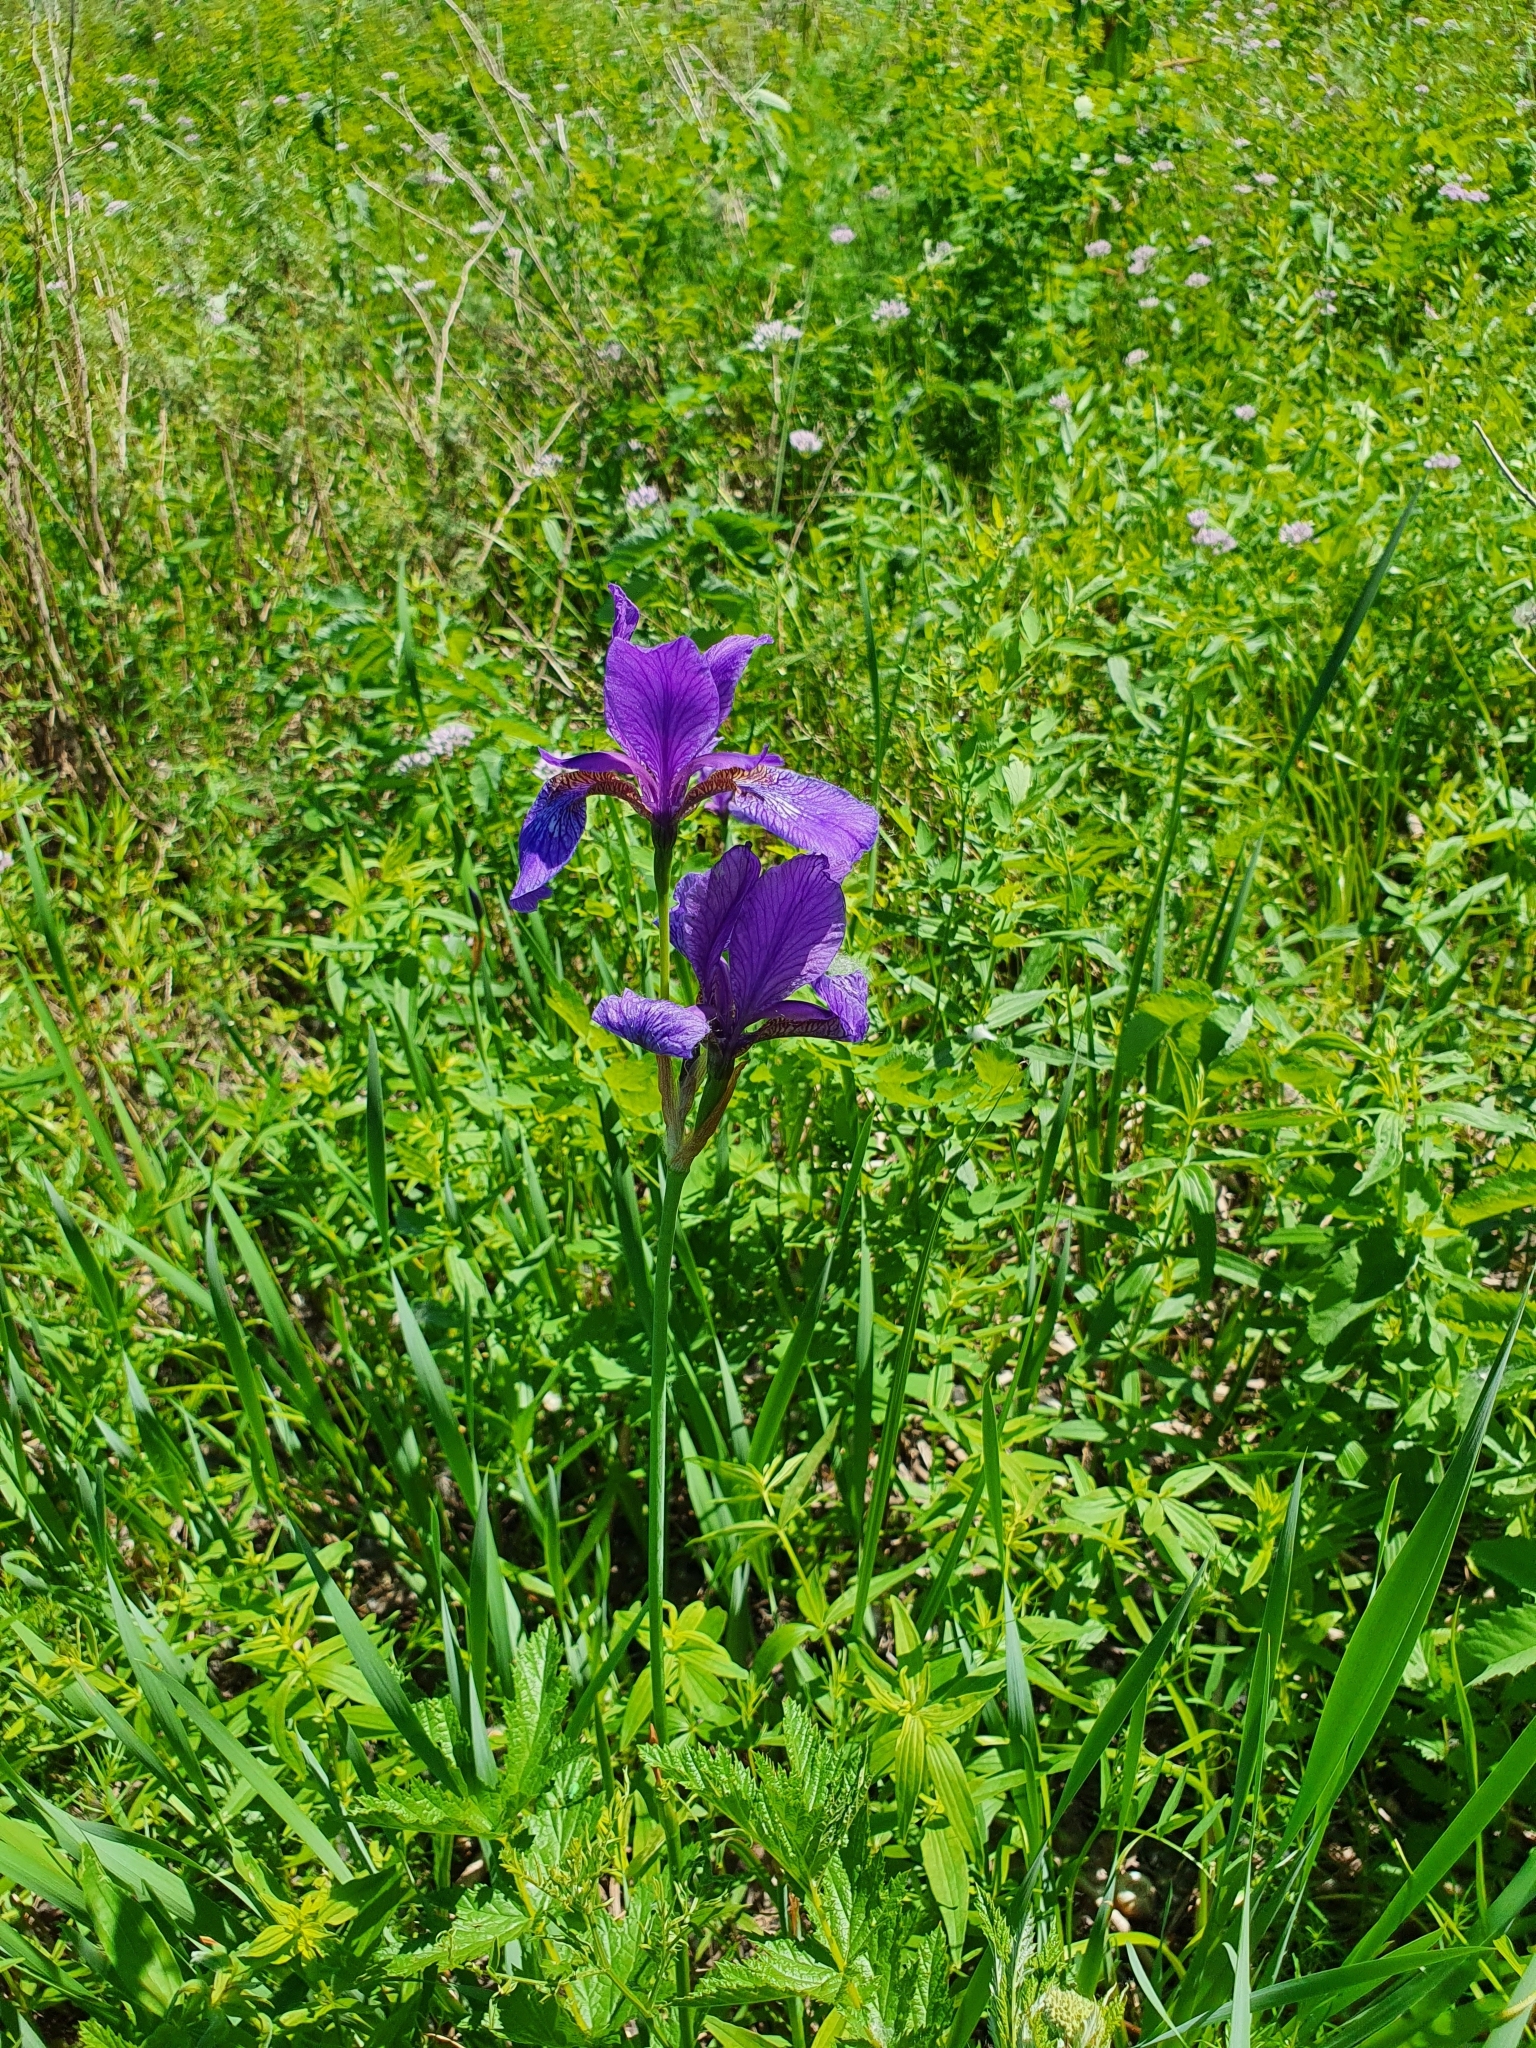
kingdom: Plantae
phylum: Tracheophyta
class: Liliopsida
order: Asparagales
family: Iridaceae
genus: Iris
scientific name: Iris sibirica
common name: Siberian iris
